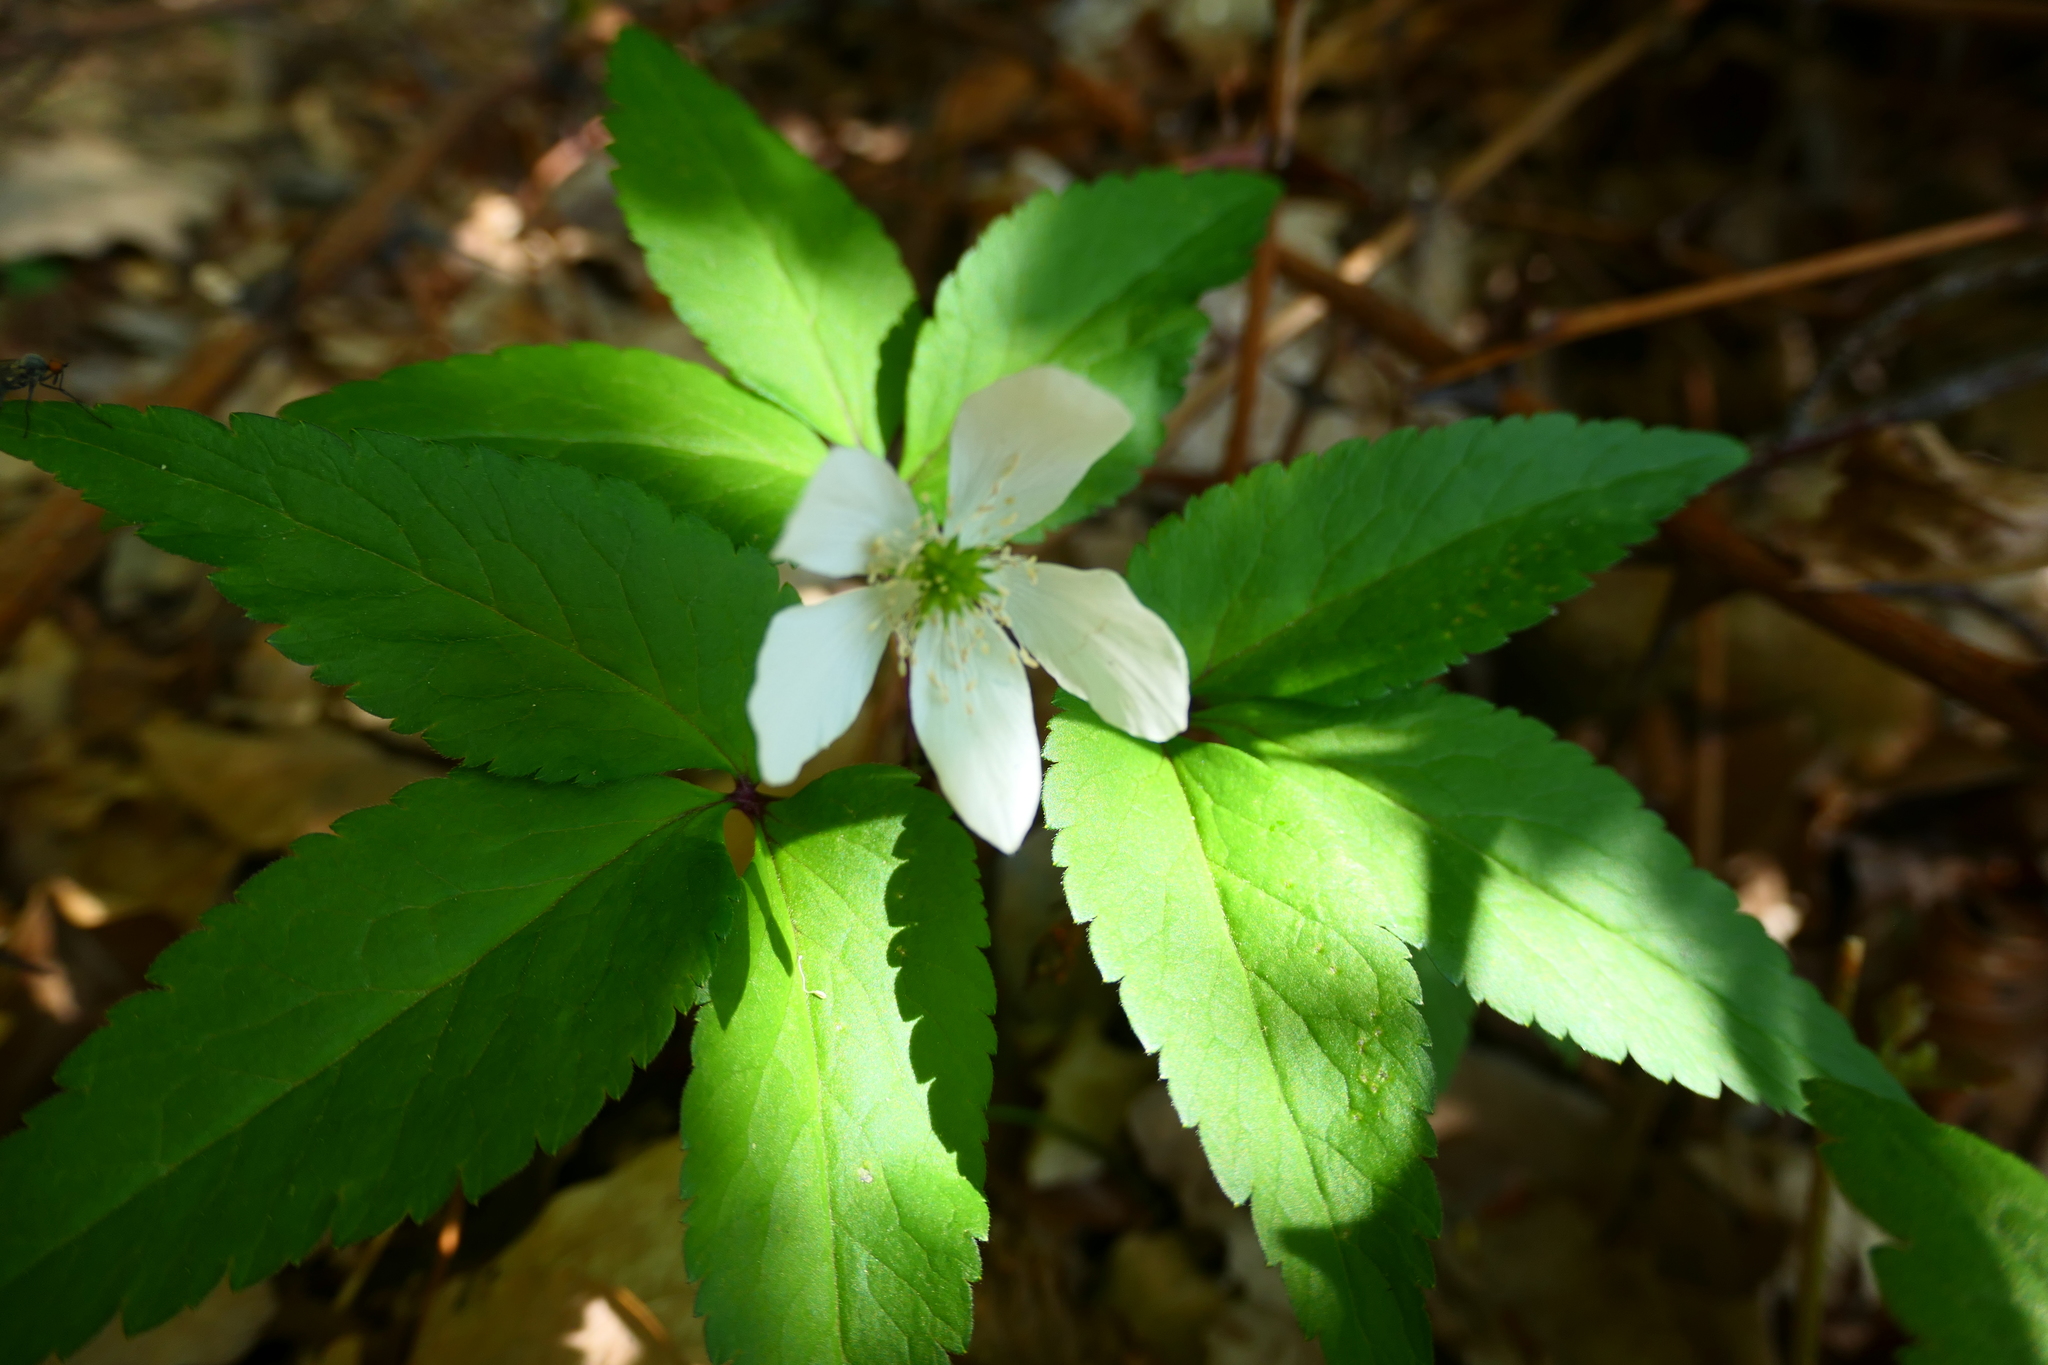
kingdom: Plantae
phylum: Tracheophyta
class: Magnoliopsida
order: Ranunculales
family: Ranunculaceae
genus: Anemone
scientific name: Anemone trifolia
